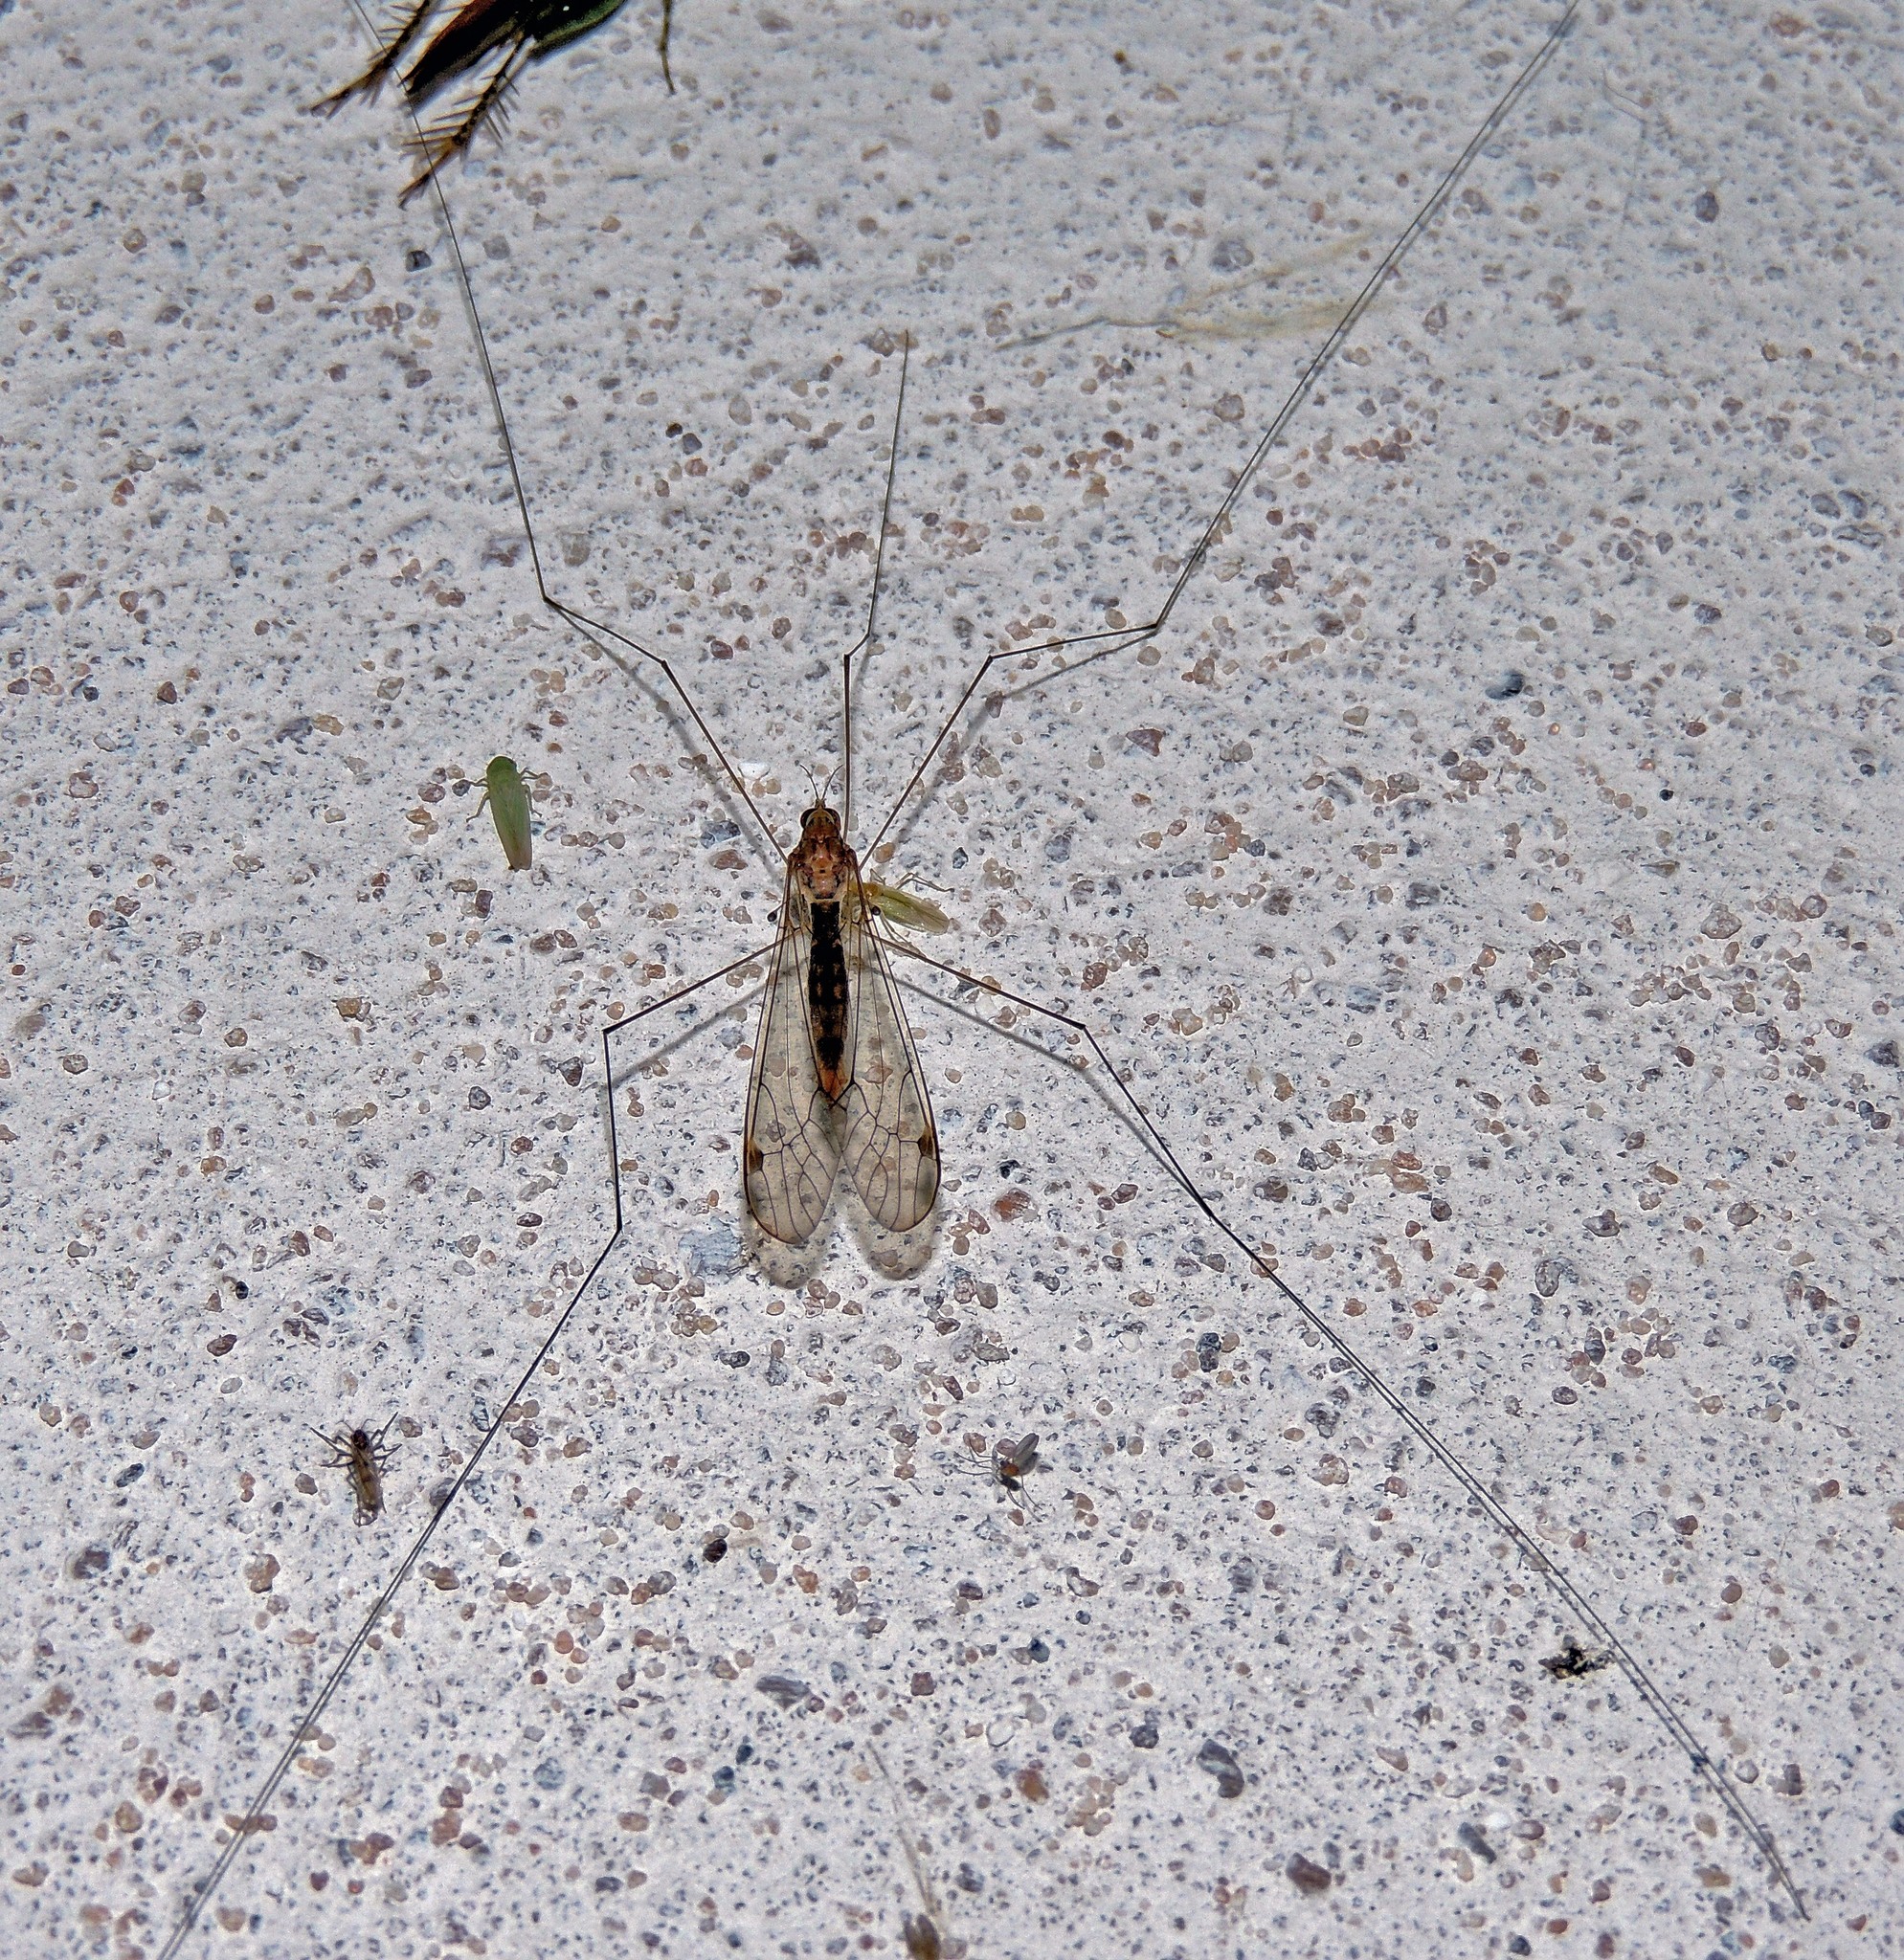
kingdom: Animalia
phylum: Arthropoda
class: Insecta
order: Diptera
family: Tipulidae
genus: Maekistocera
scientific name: Maekistocera longipennis
